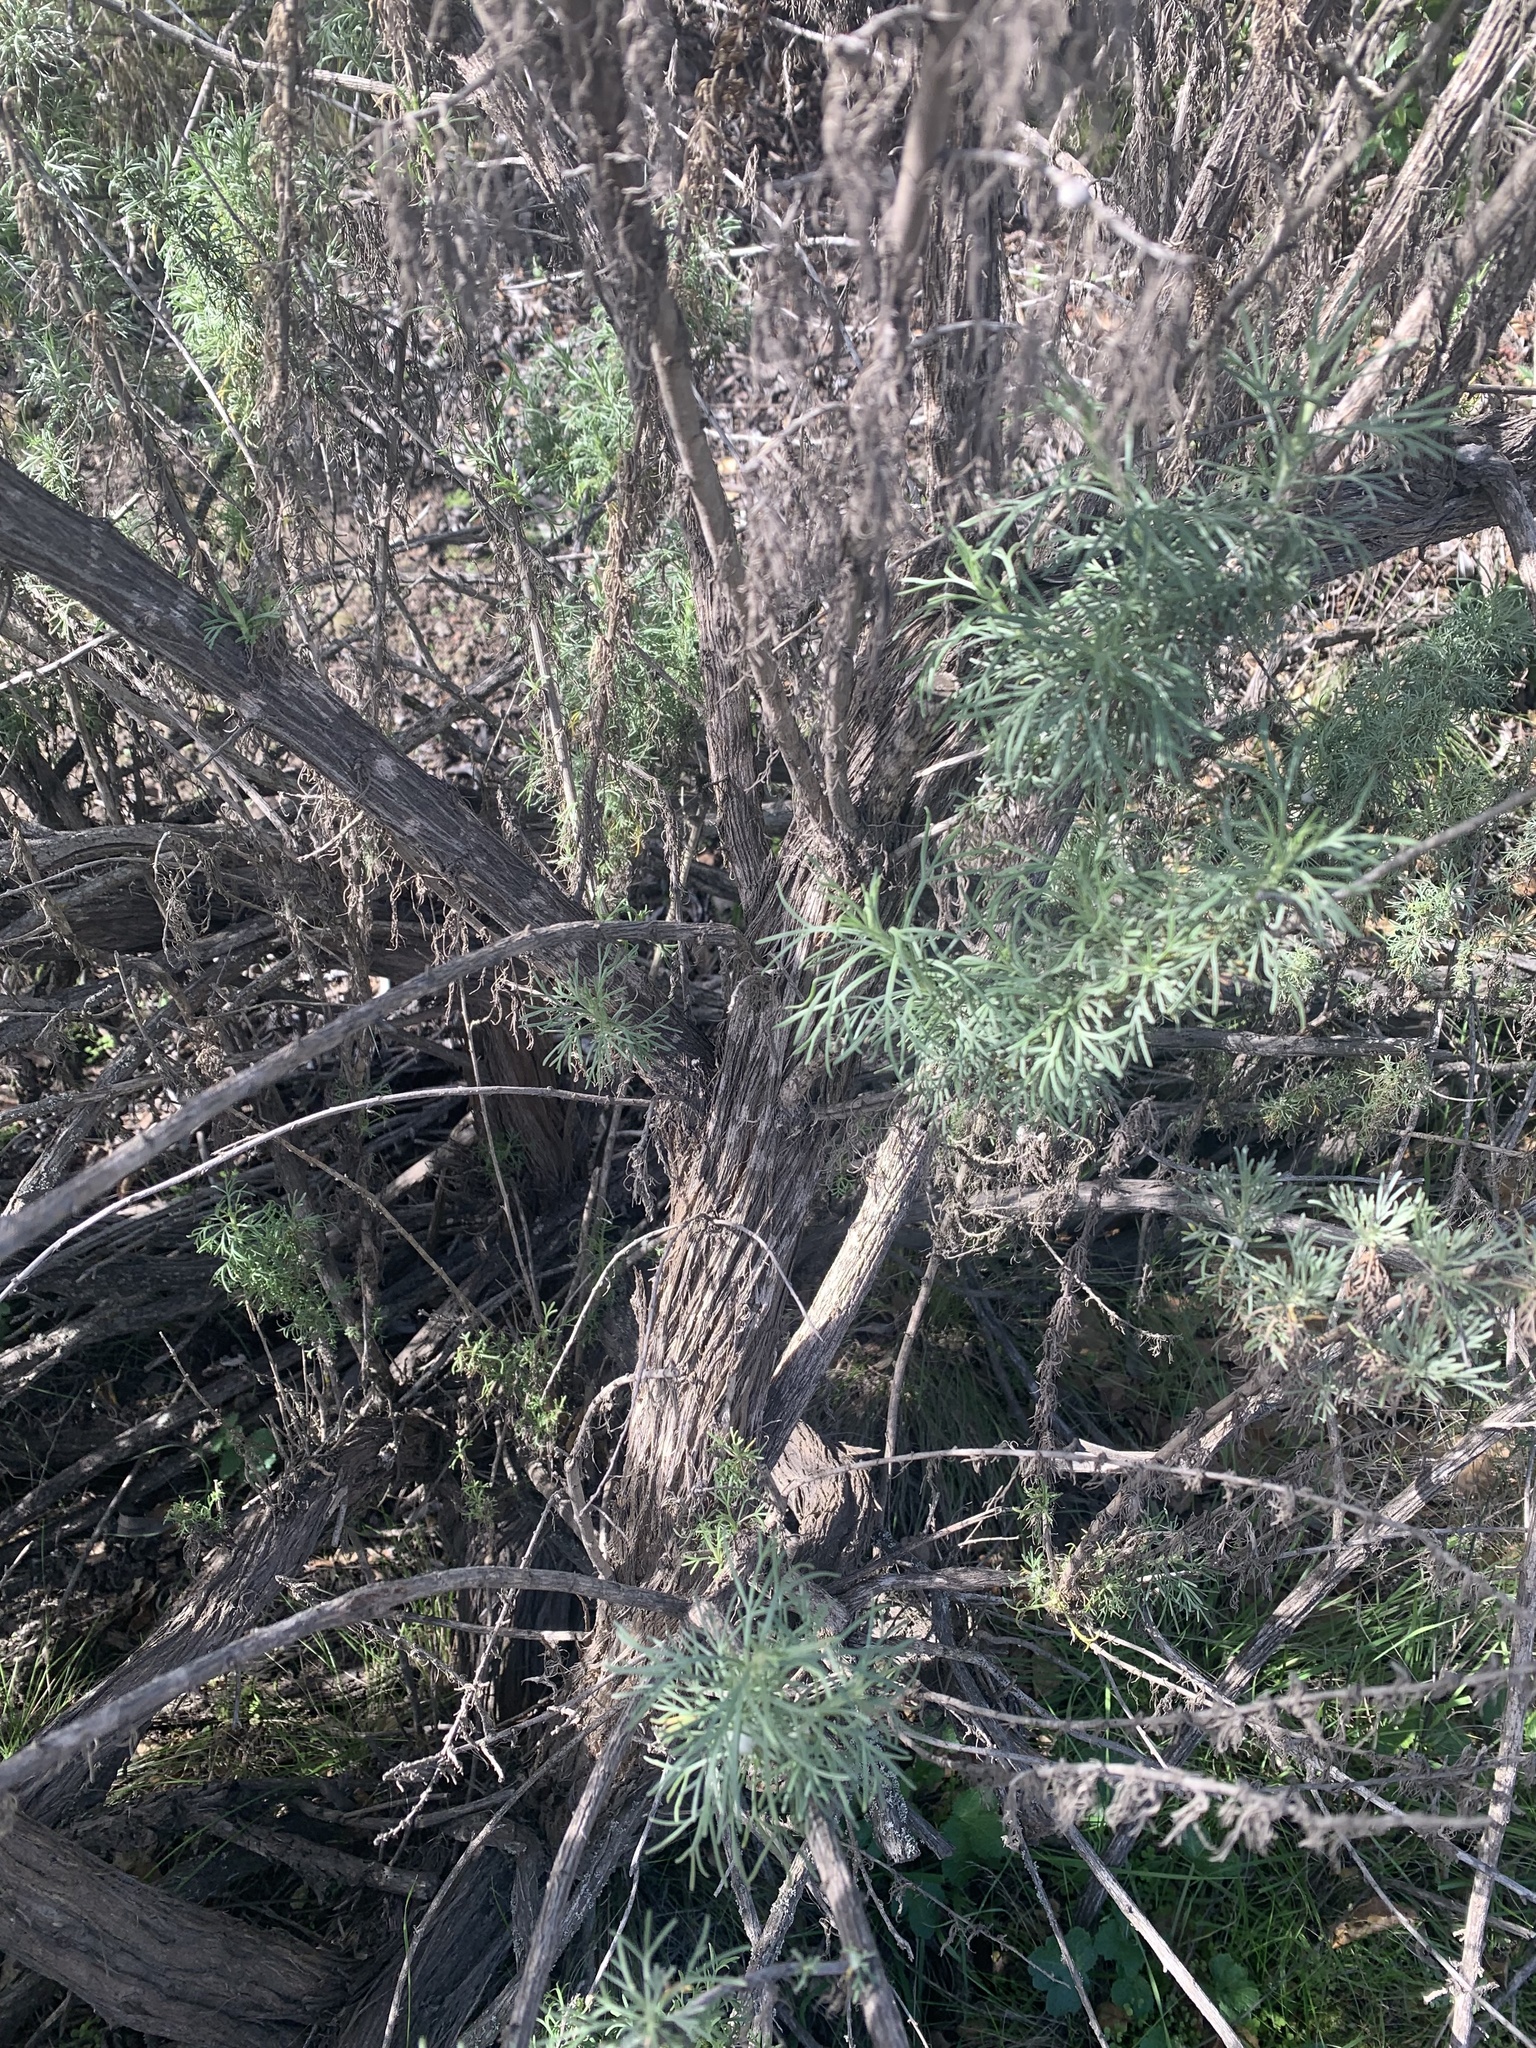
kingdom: Plantae
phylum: Tracheophyta
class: Magnoliopsida
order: Asterales
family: Asteraceae
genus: Artemisia
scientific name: Artemisia californica
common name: California sagebrush
